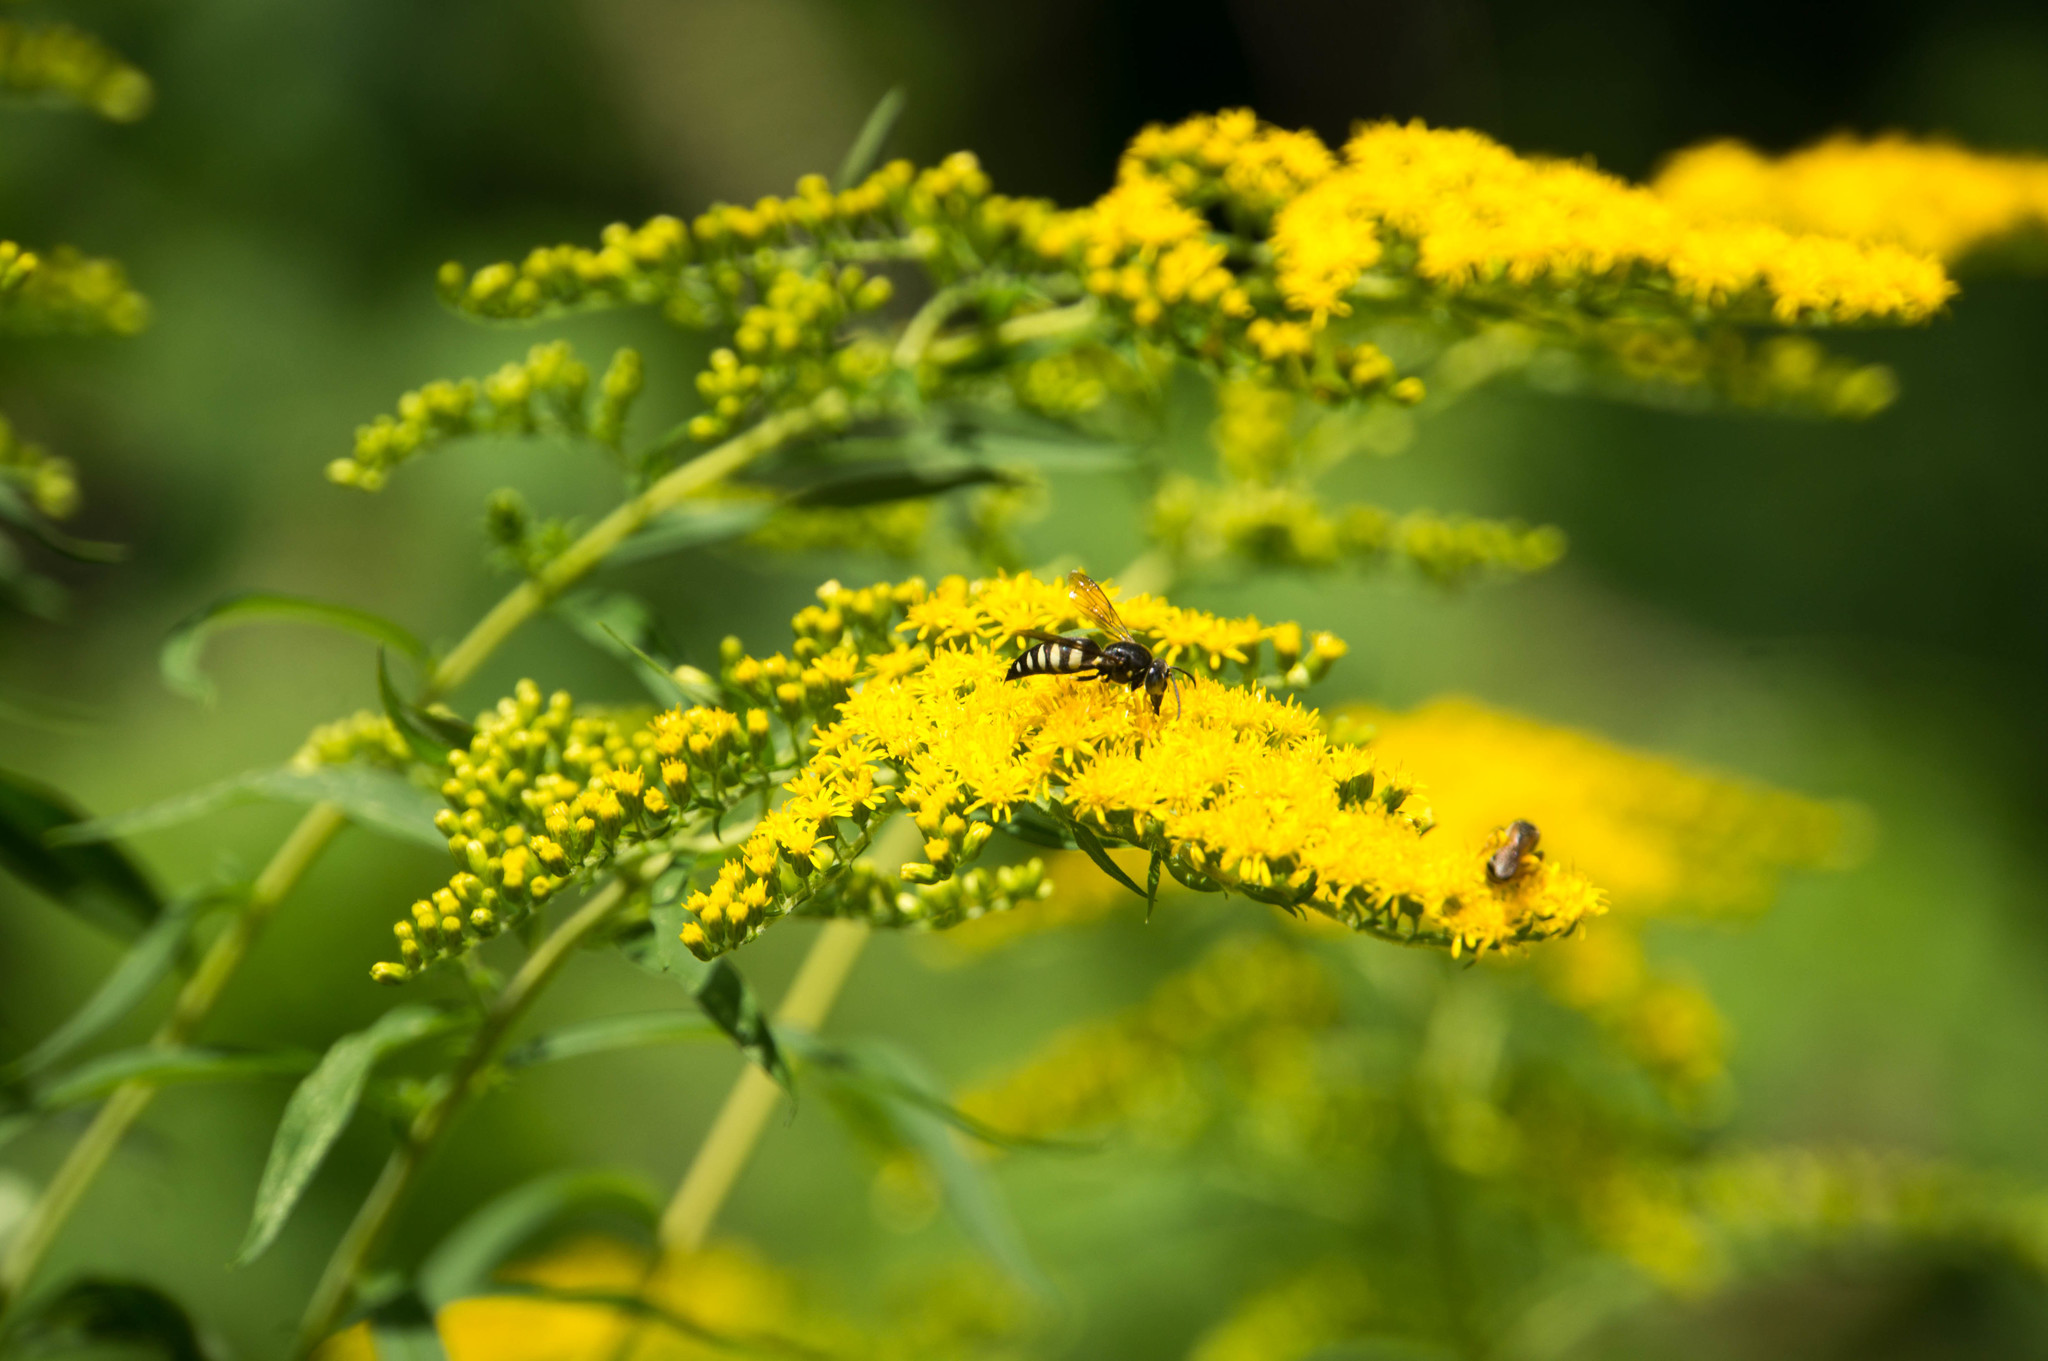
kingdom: Animalia
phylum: Arthropoda
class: Insecta
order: Hymenoptera
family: Crabronidae
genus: Bicyrtes
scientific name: Bicyrtes quadrifasciatus
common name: Four-banded stink bug hunter wasp
